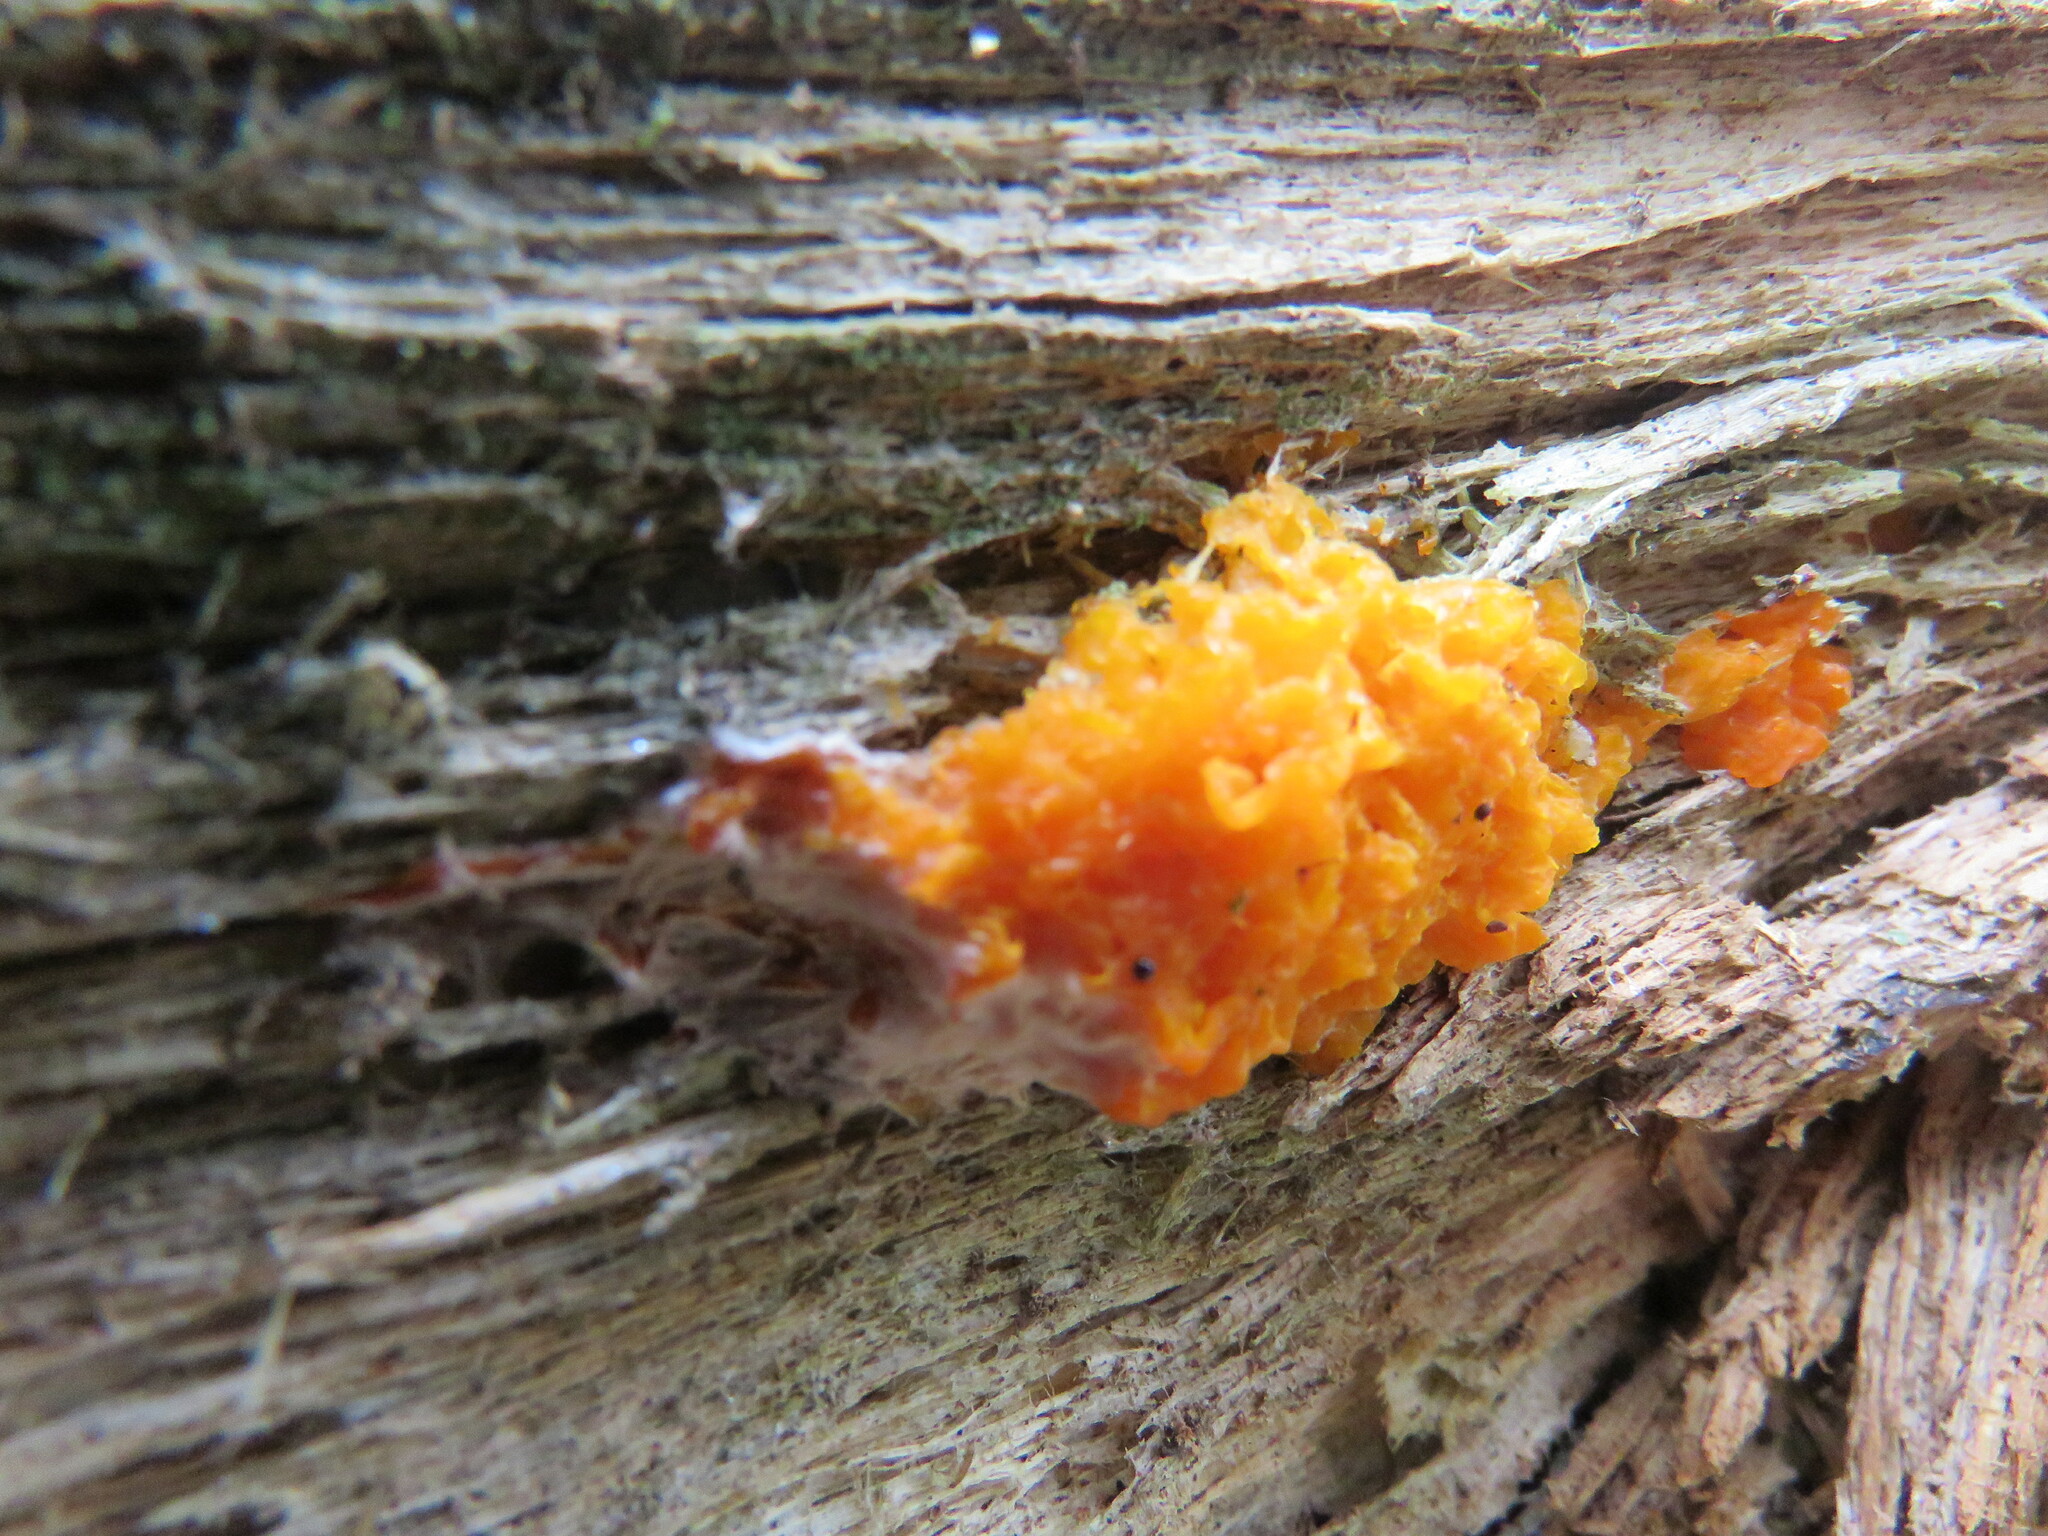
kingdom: Fungi
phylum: Basidiomycota
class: Dacrymycetes
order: Dacrymycetales
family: Dacrymycetaceae
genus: Dacrymyces
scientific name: Dacrymyces chrysospermus
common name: Orange jelly spot
